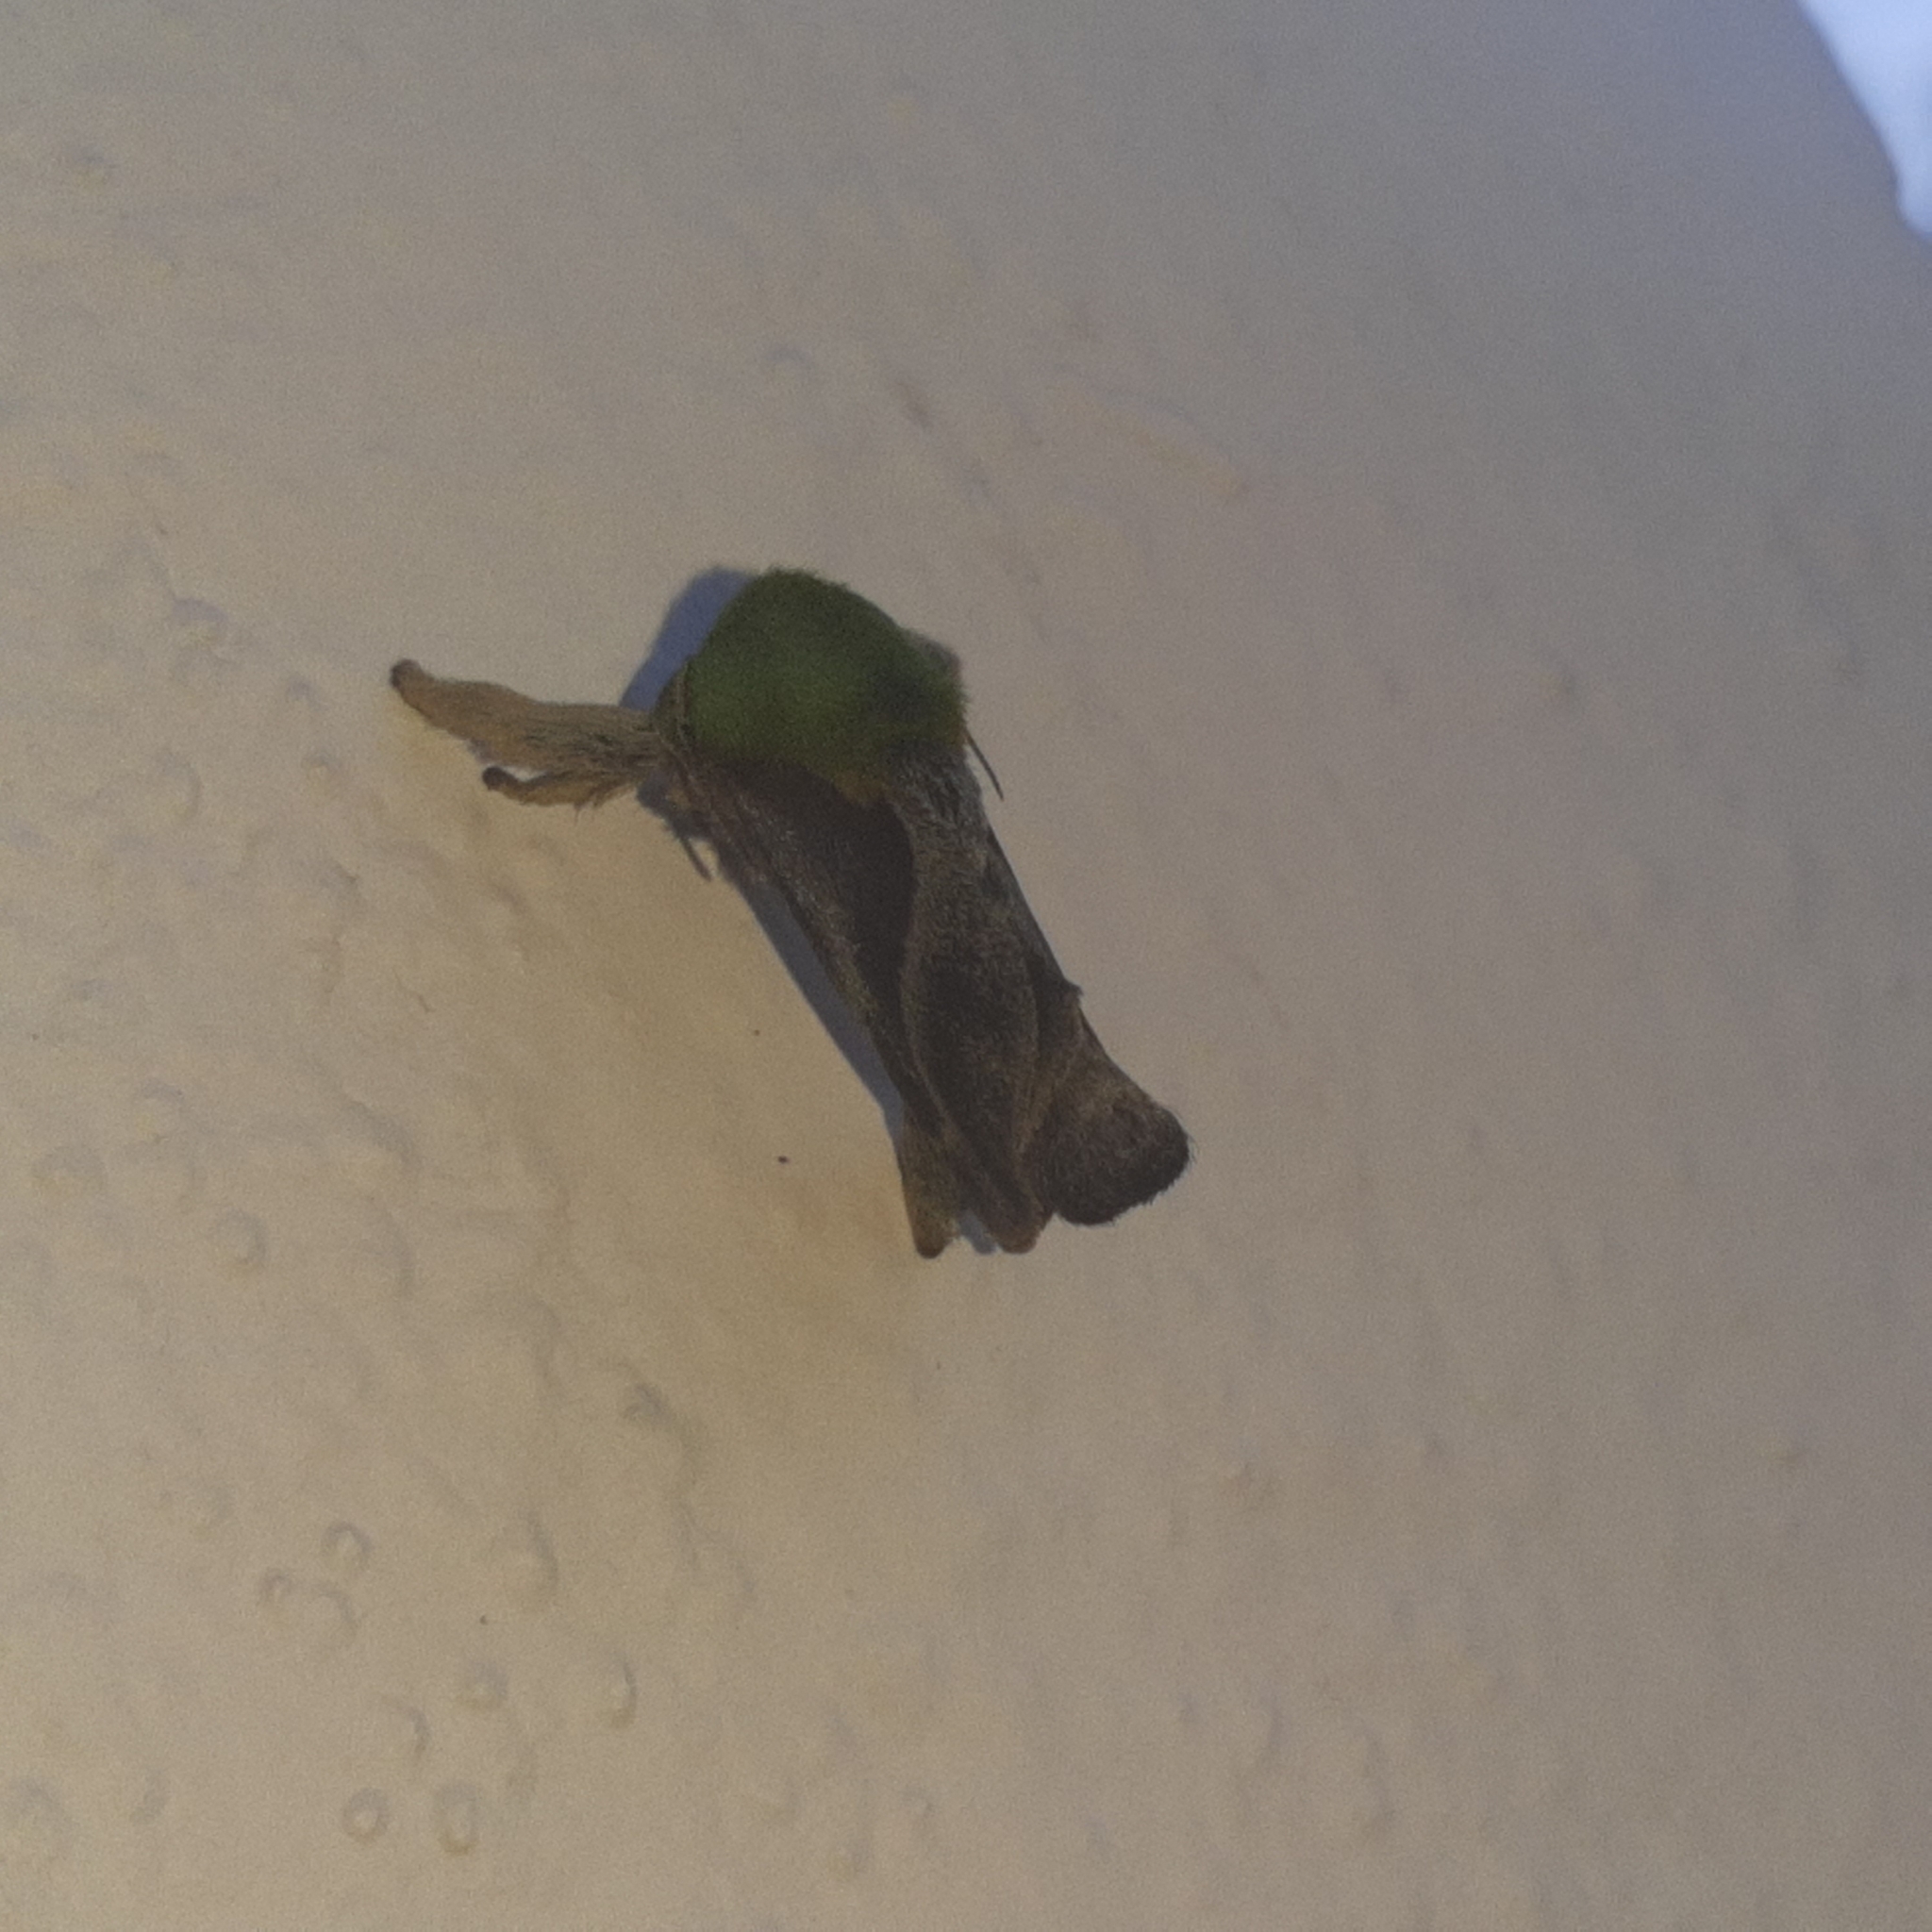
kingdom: Animalia
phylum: Arthropoda
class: Insecta
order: Lepidoptera
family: Limacodidae
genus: Parasa
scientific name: Parasa viridogrisea
